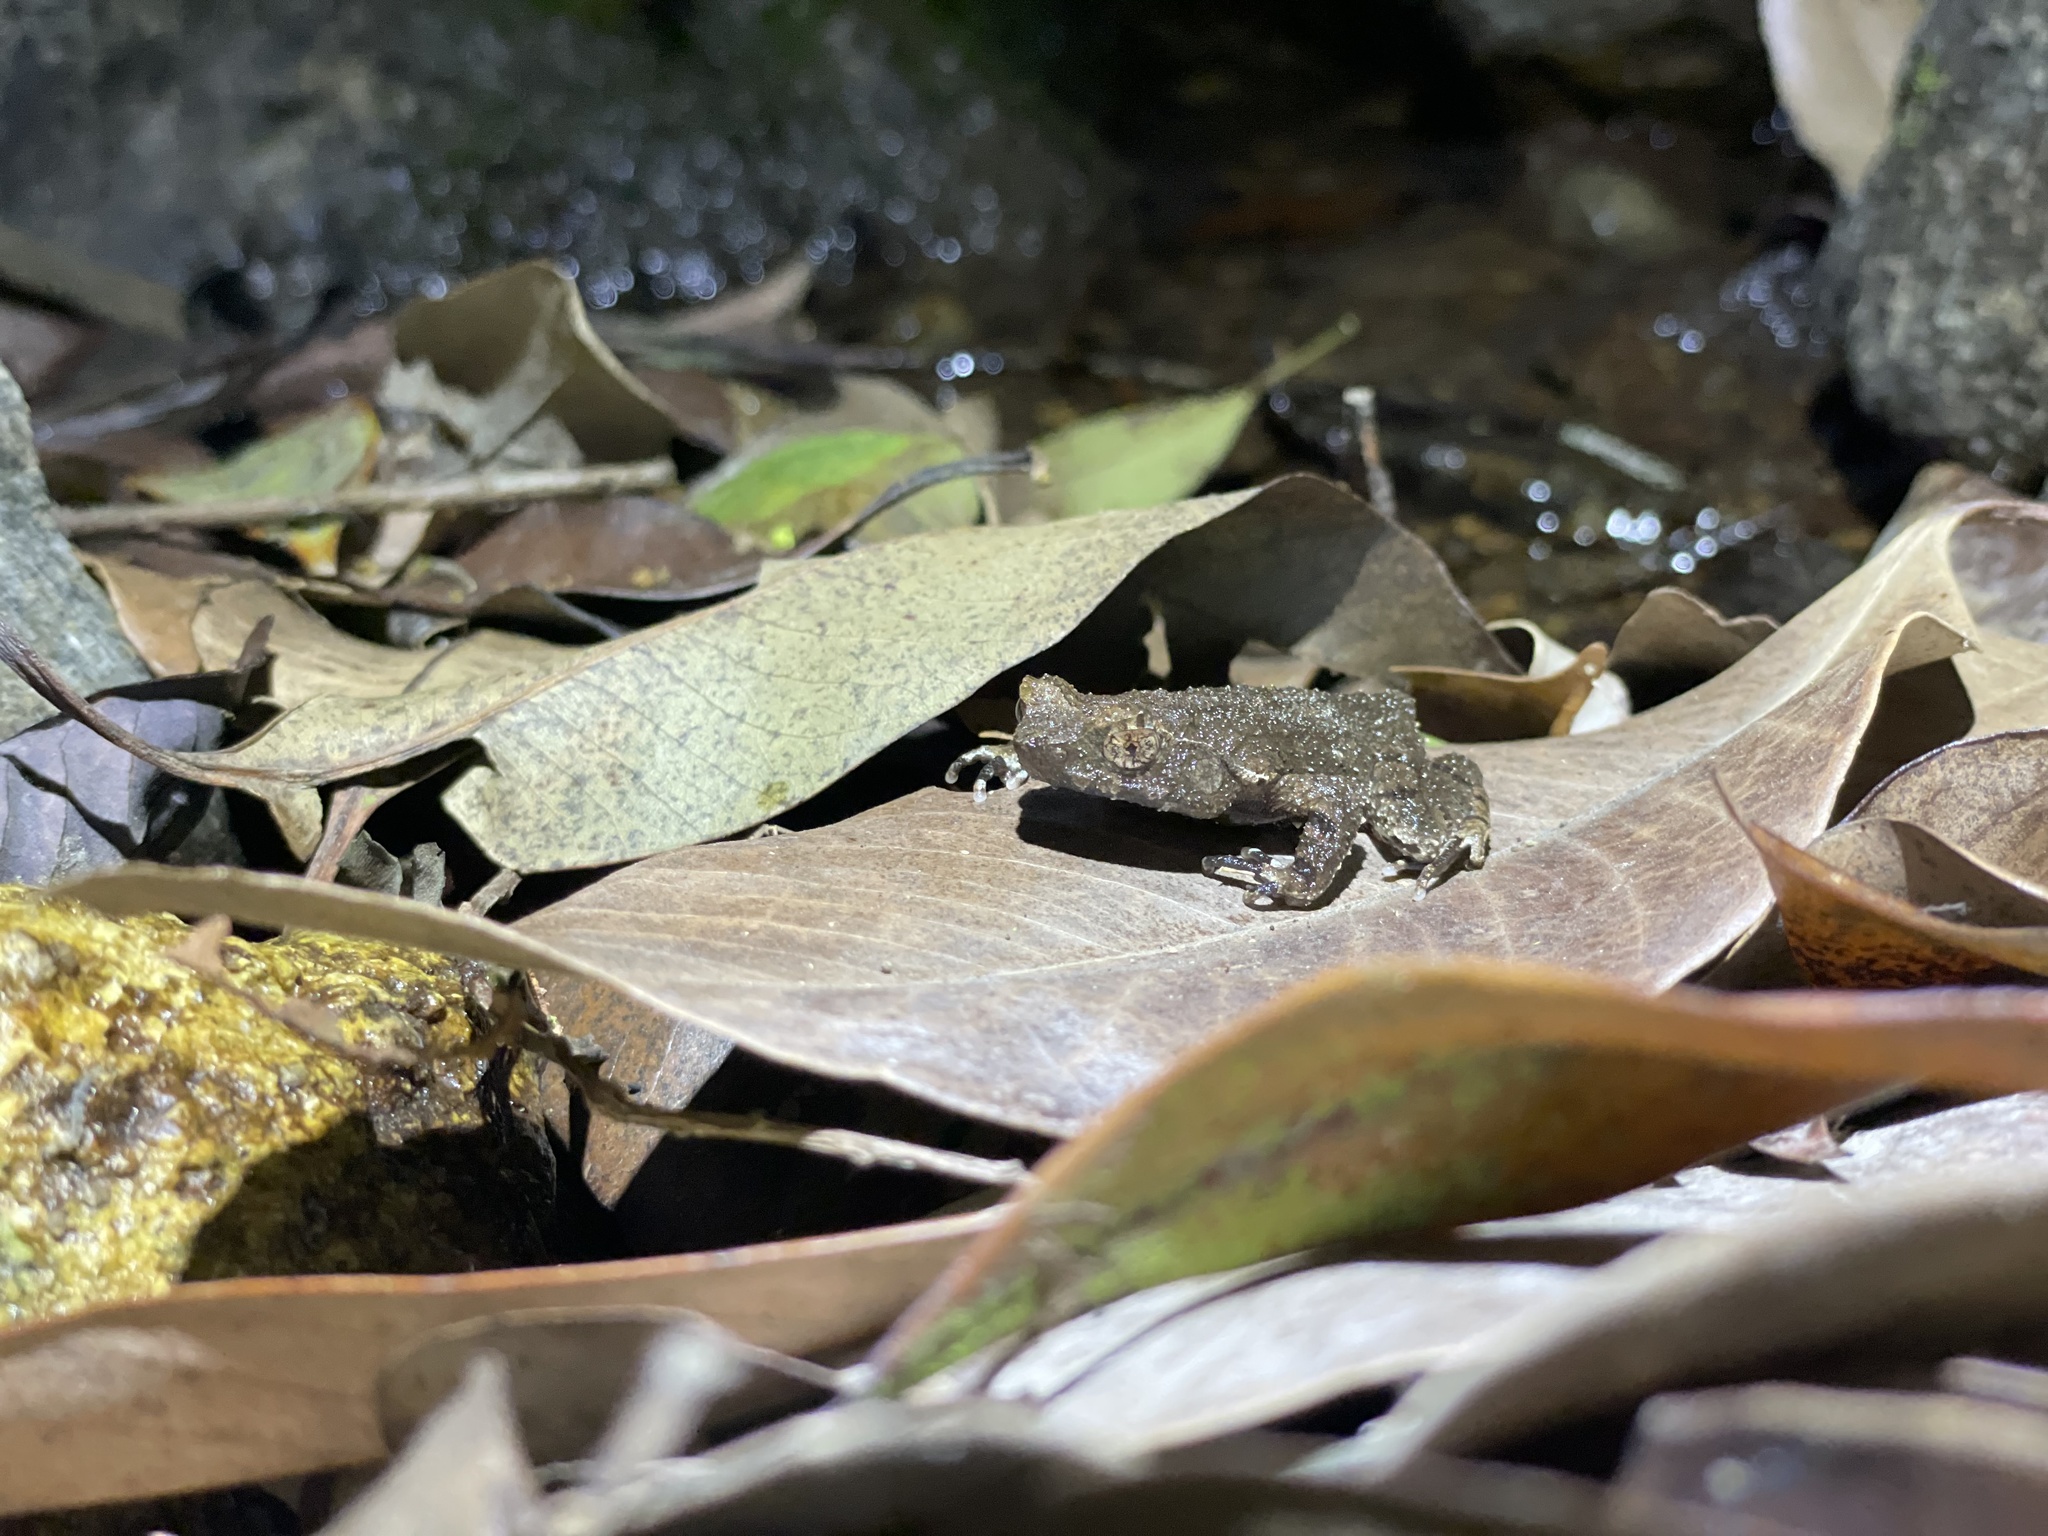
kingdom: Animalia
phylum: Chordata
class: Amphibia
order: Anura
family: Megophryidae
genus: Megophrys
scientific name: Megophrys brachykolos
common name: Short-legged horned toad
